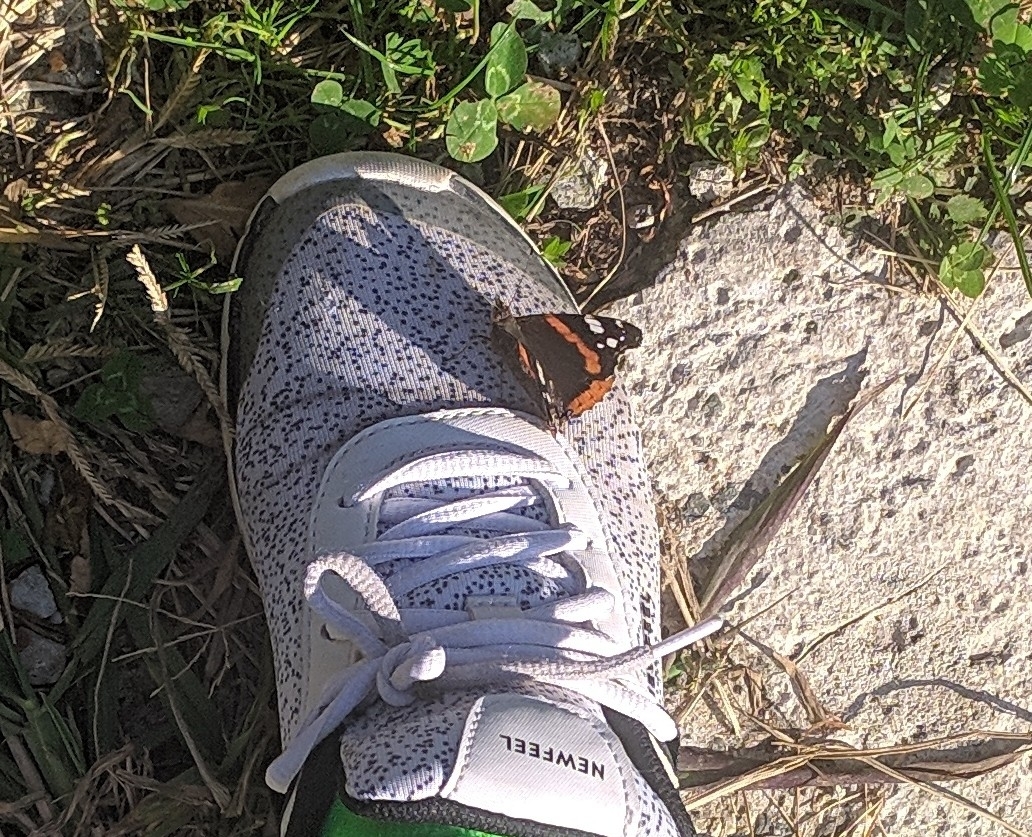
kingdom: Animalia
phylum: Arthropoda
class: Insecta
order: Lepidoptera
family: Nymphalidae
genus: Vanessa
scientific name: Vanessa atalanta
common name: Red admiral
